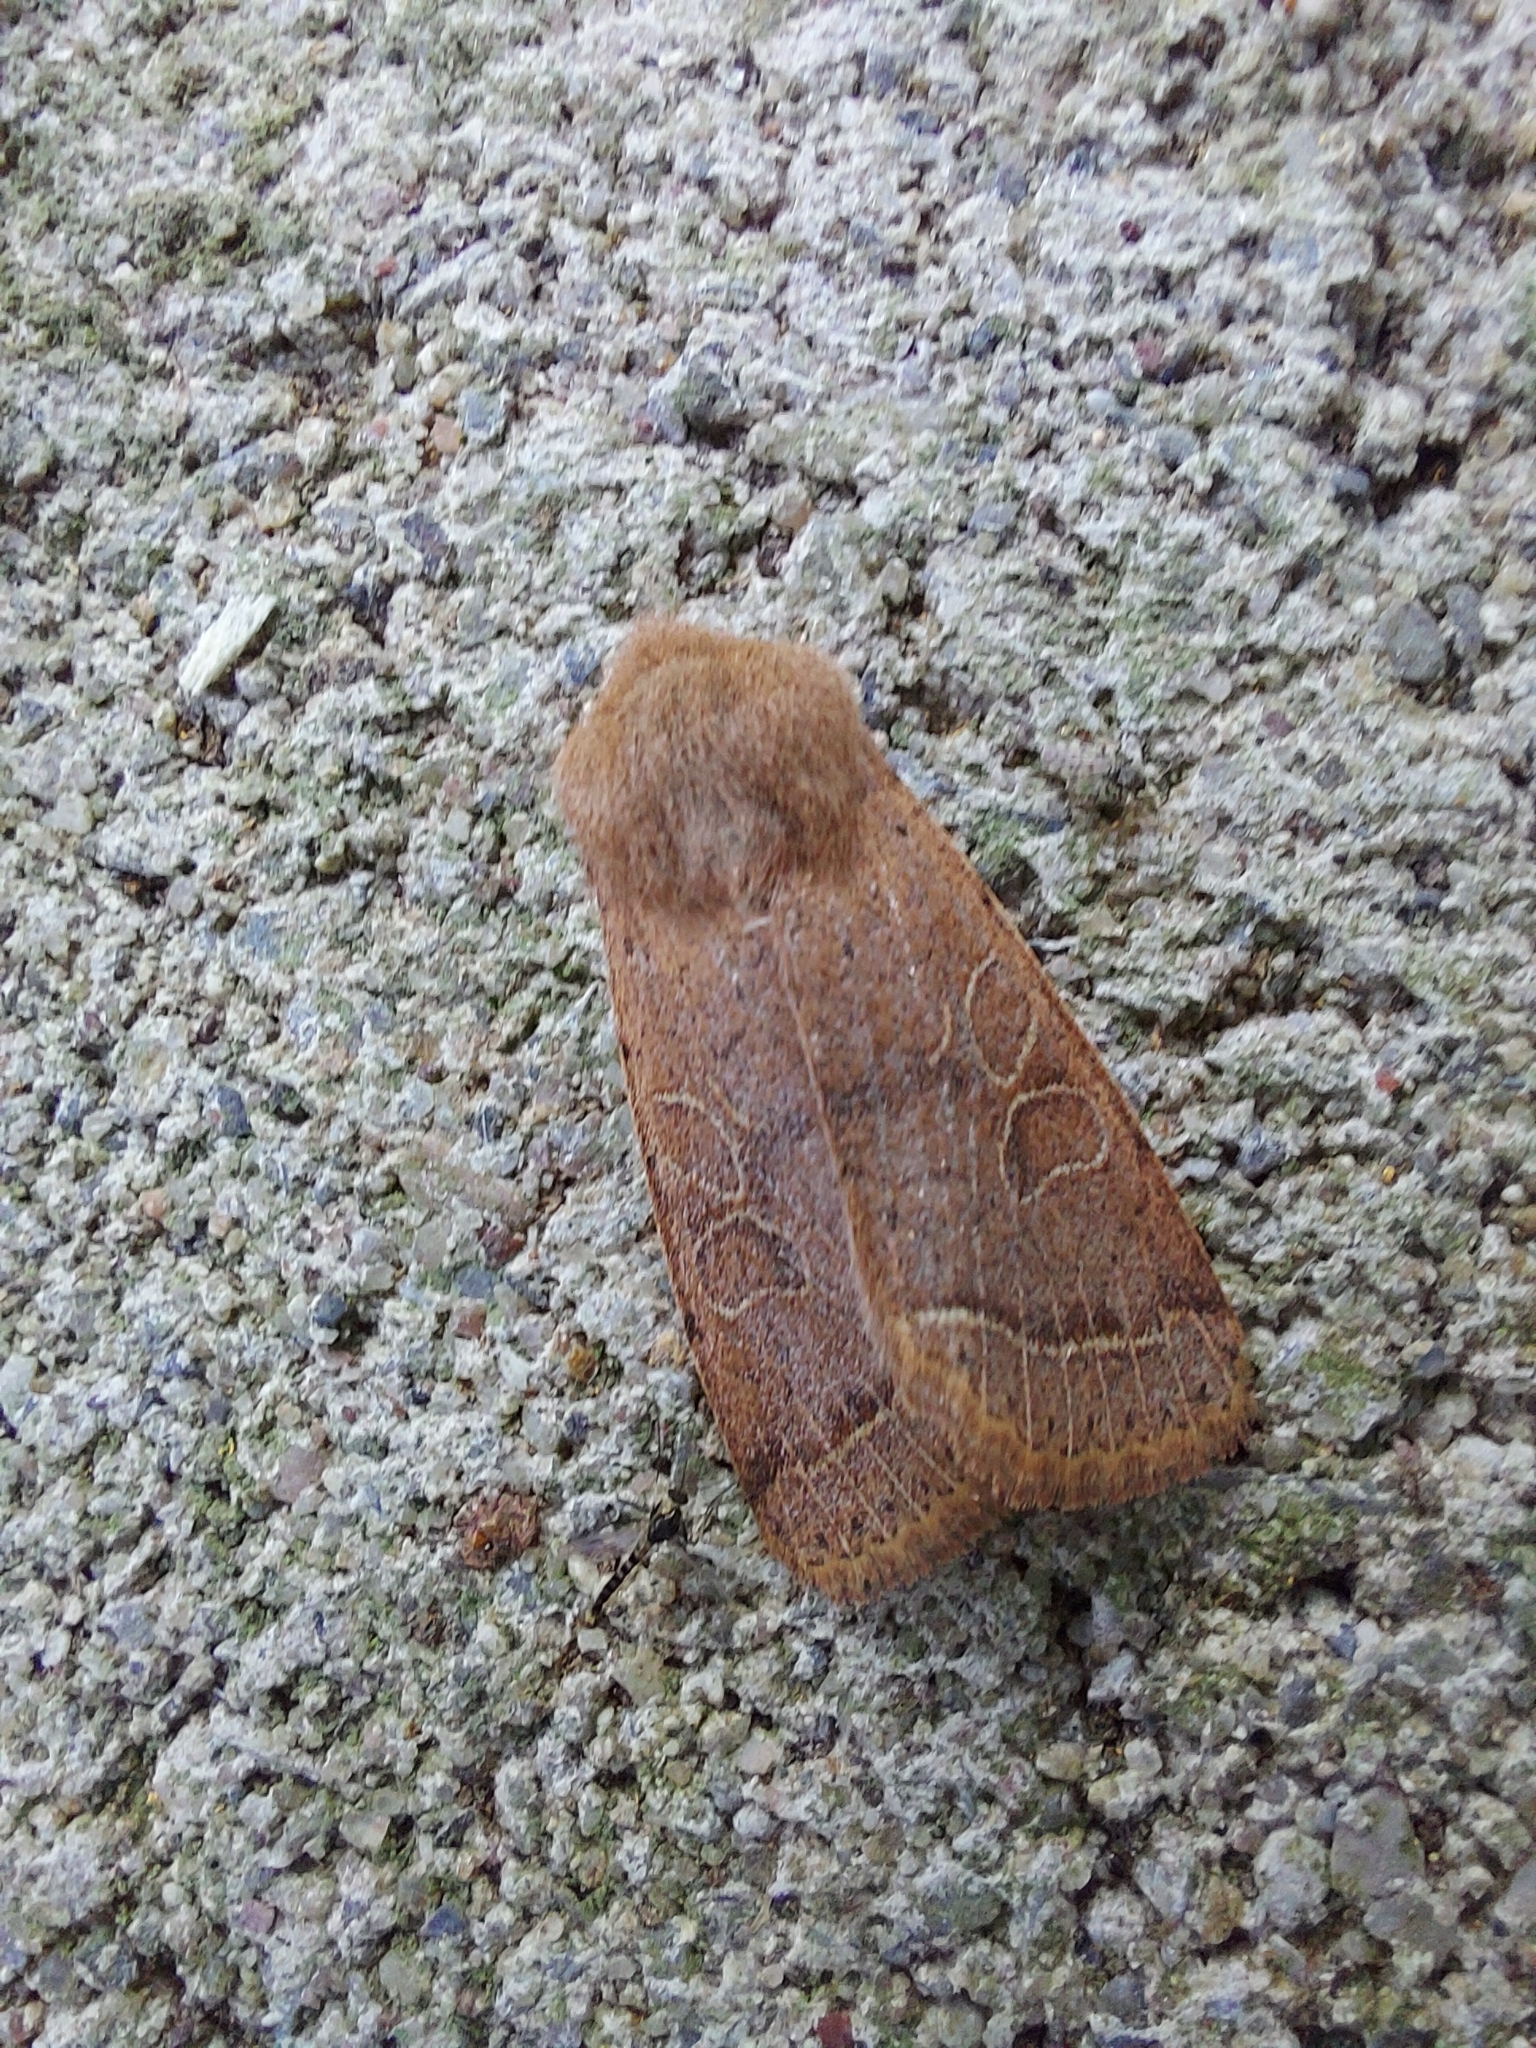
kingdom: Animalia
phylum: Arthropoda
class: Insecta
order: Lepidoptera
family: Noctuidae
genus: Orthosia
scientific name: Orthosia cerasi
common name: Common quaker
